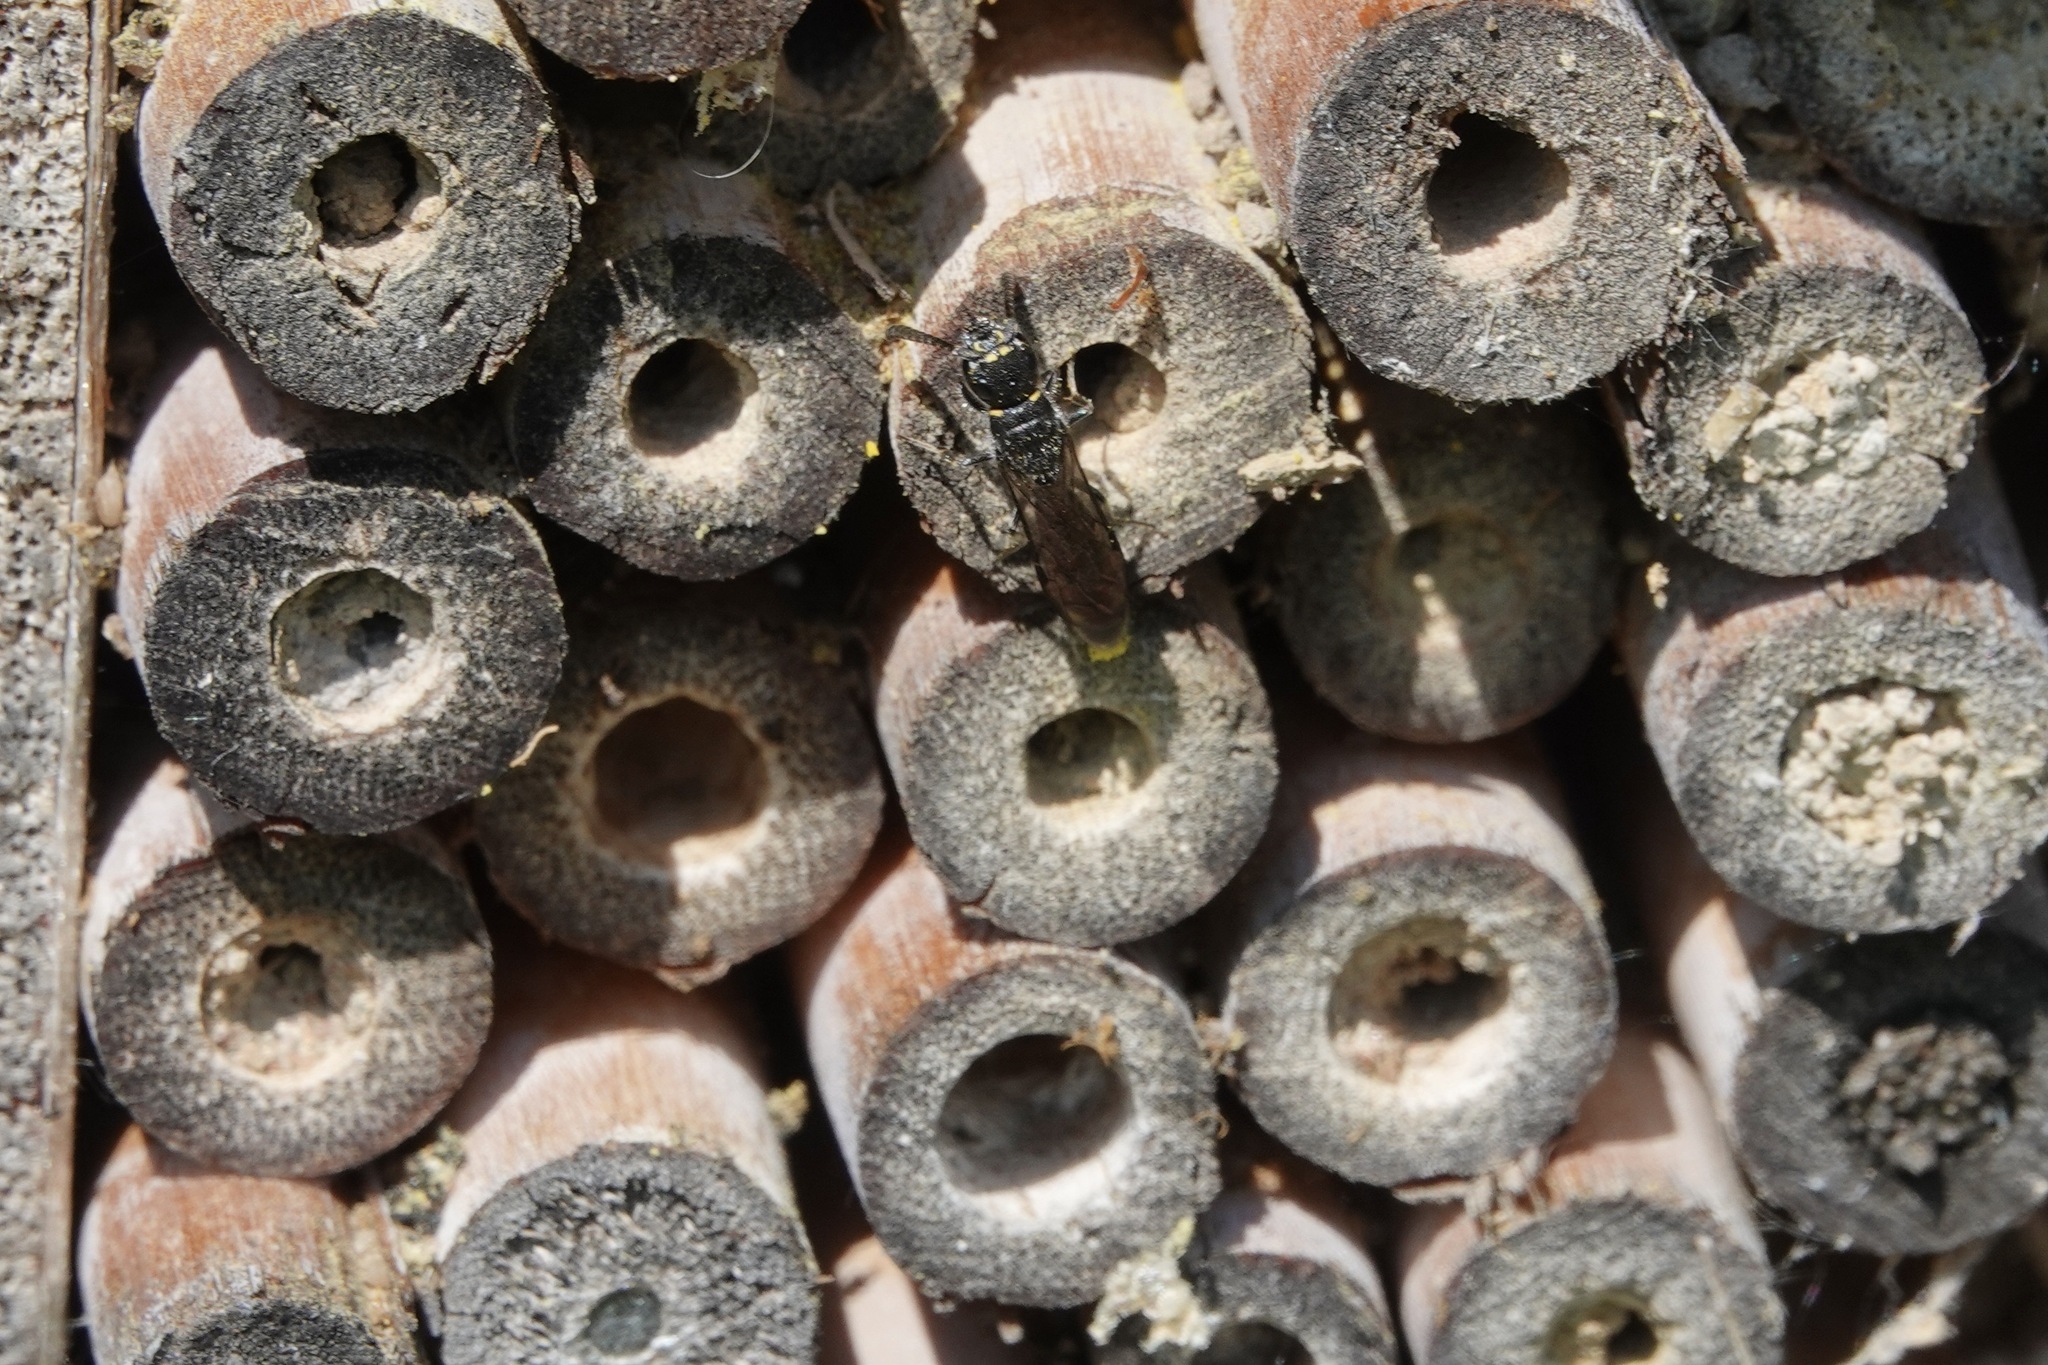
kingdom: Animalia
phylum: Arthropoda
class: Insecta
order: Hymenoptera
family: Sapygidae
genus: Monosapyga
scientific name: Monosapyga clavicornis
